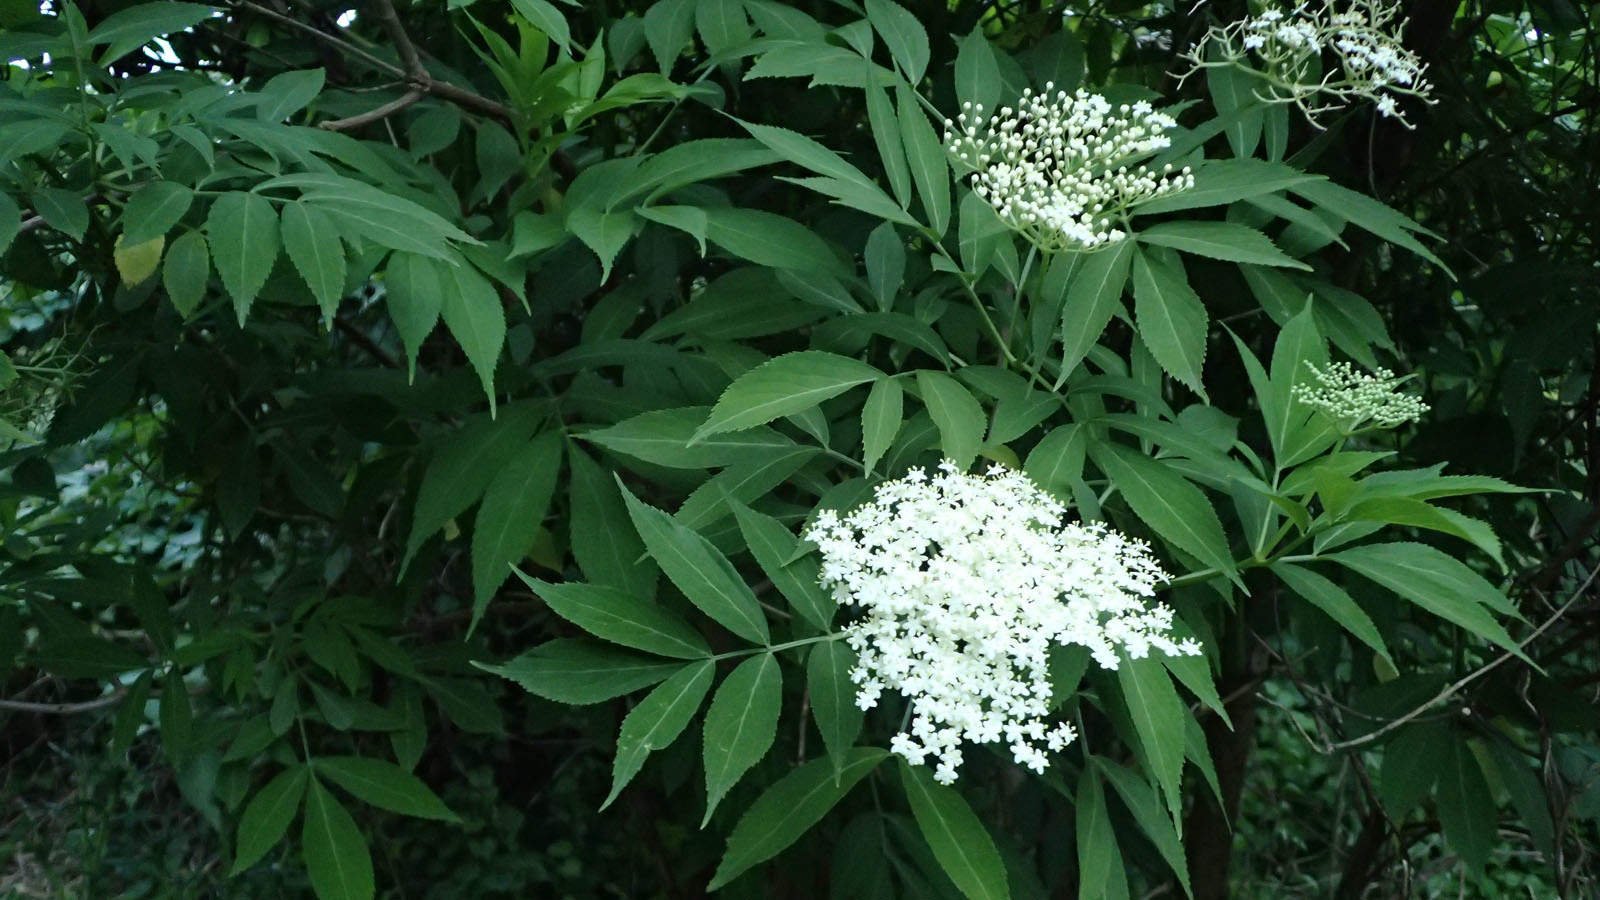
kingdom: Plantae
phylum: Tracheophyta
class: Magnoliopsida
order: Dipsacales
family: Viburnaceae
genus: Sambucus
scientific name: Sambucus nigra
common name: Elder
